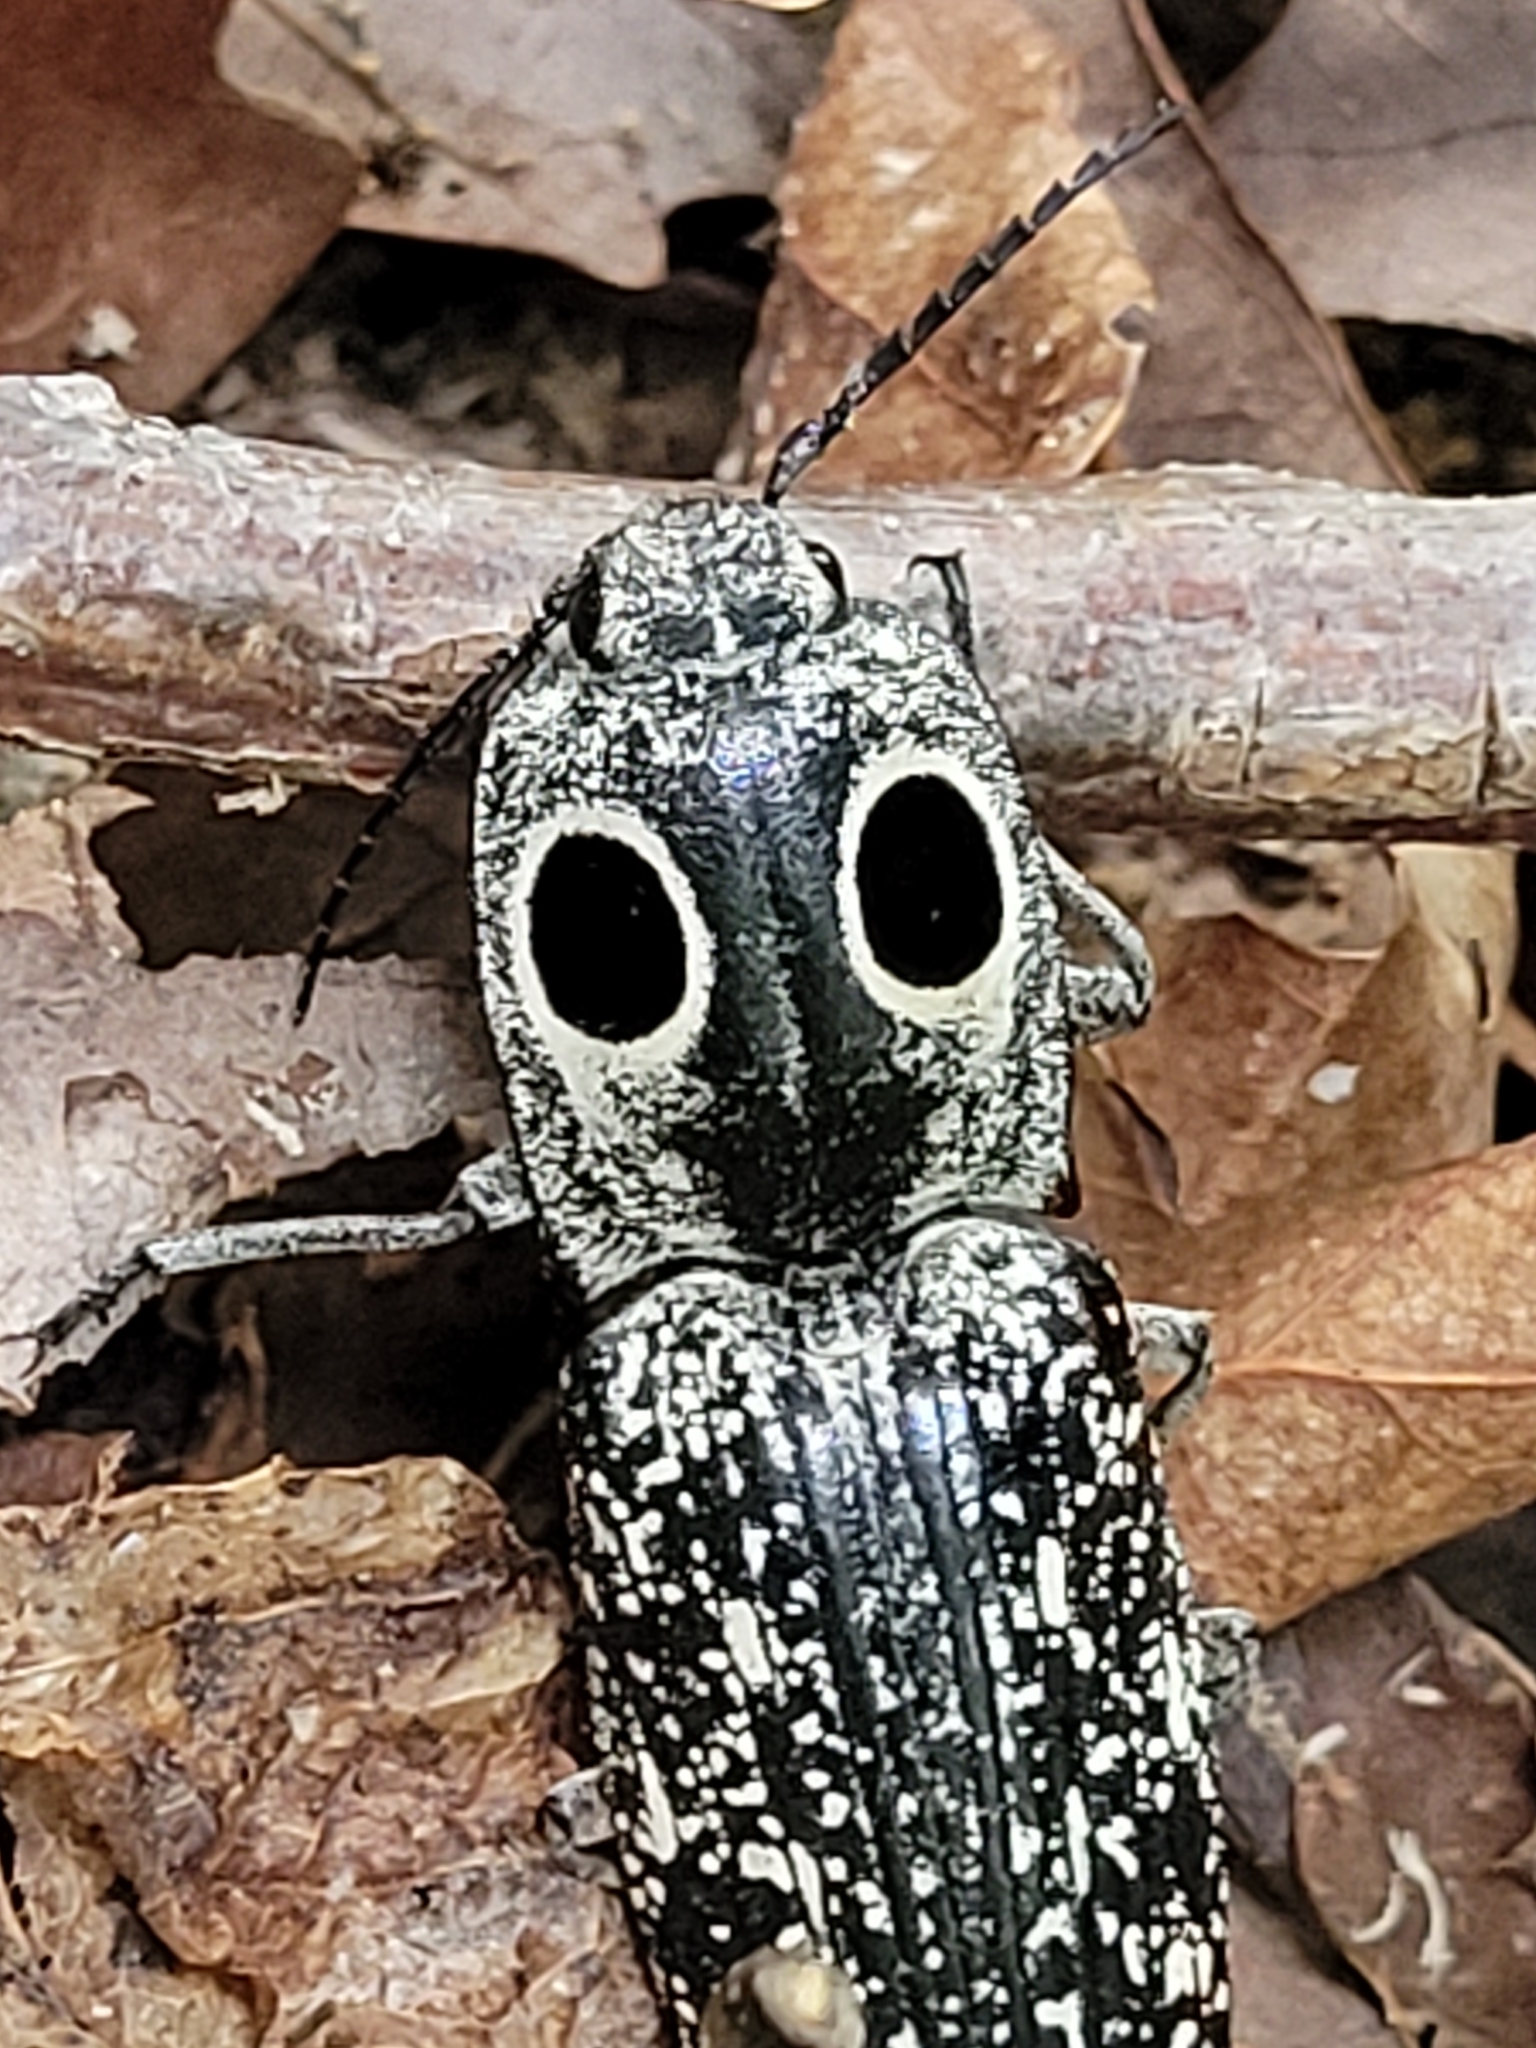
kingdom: Animalia
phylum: Arthropoda
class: Insecta
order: Coleoptera
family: Elateridae
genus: Alaus
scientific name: Alaus oculatus
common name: Eastern eyed click beetle
